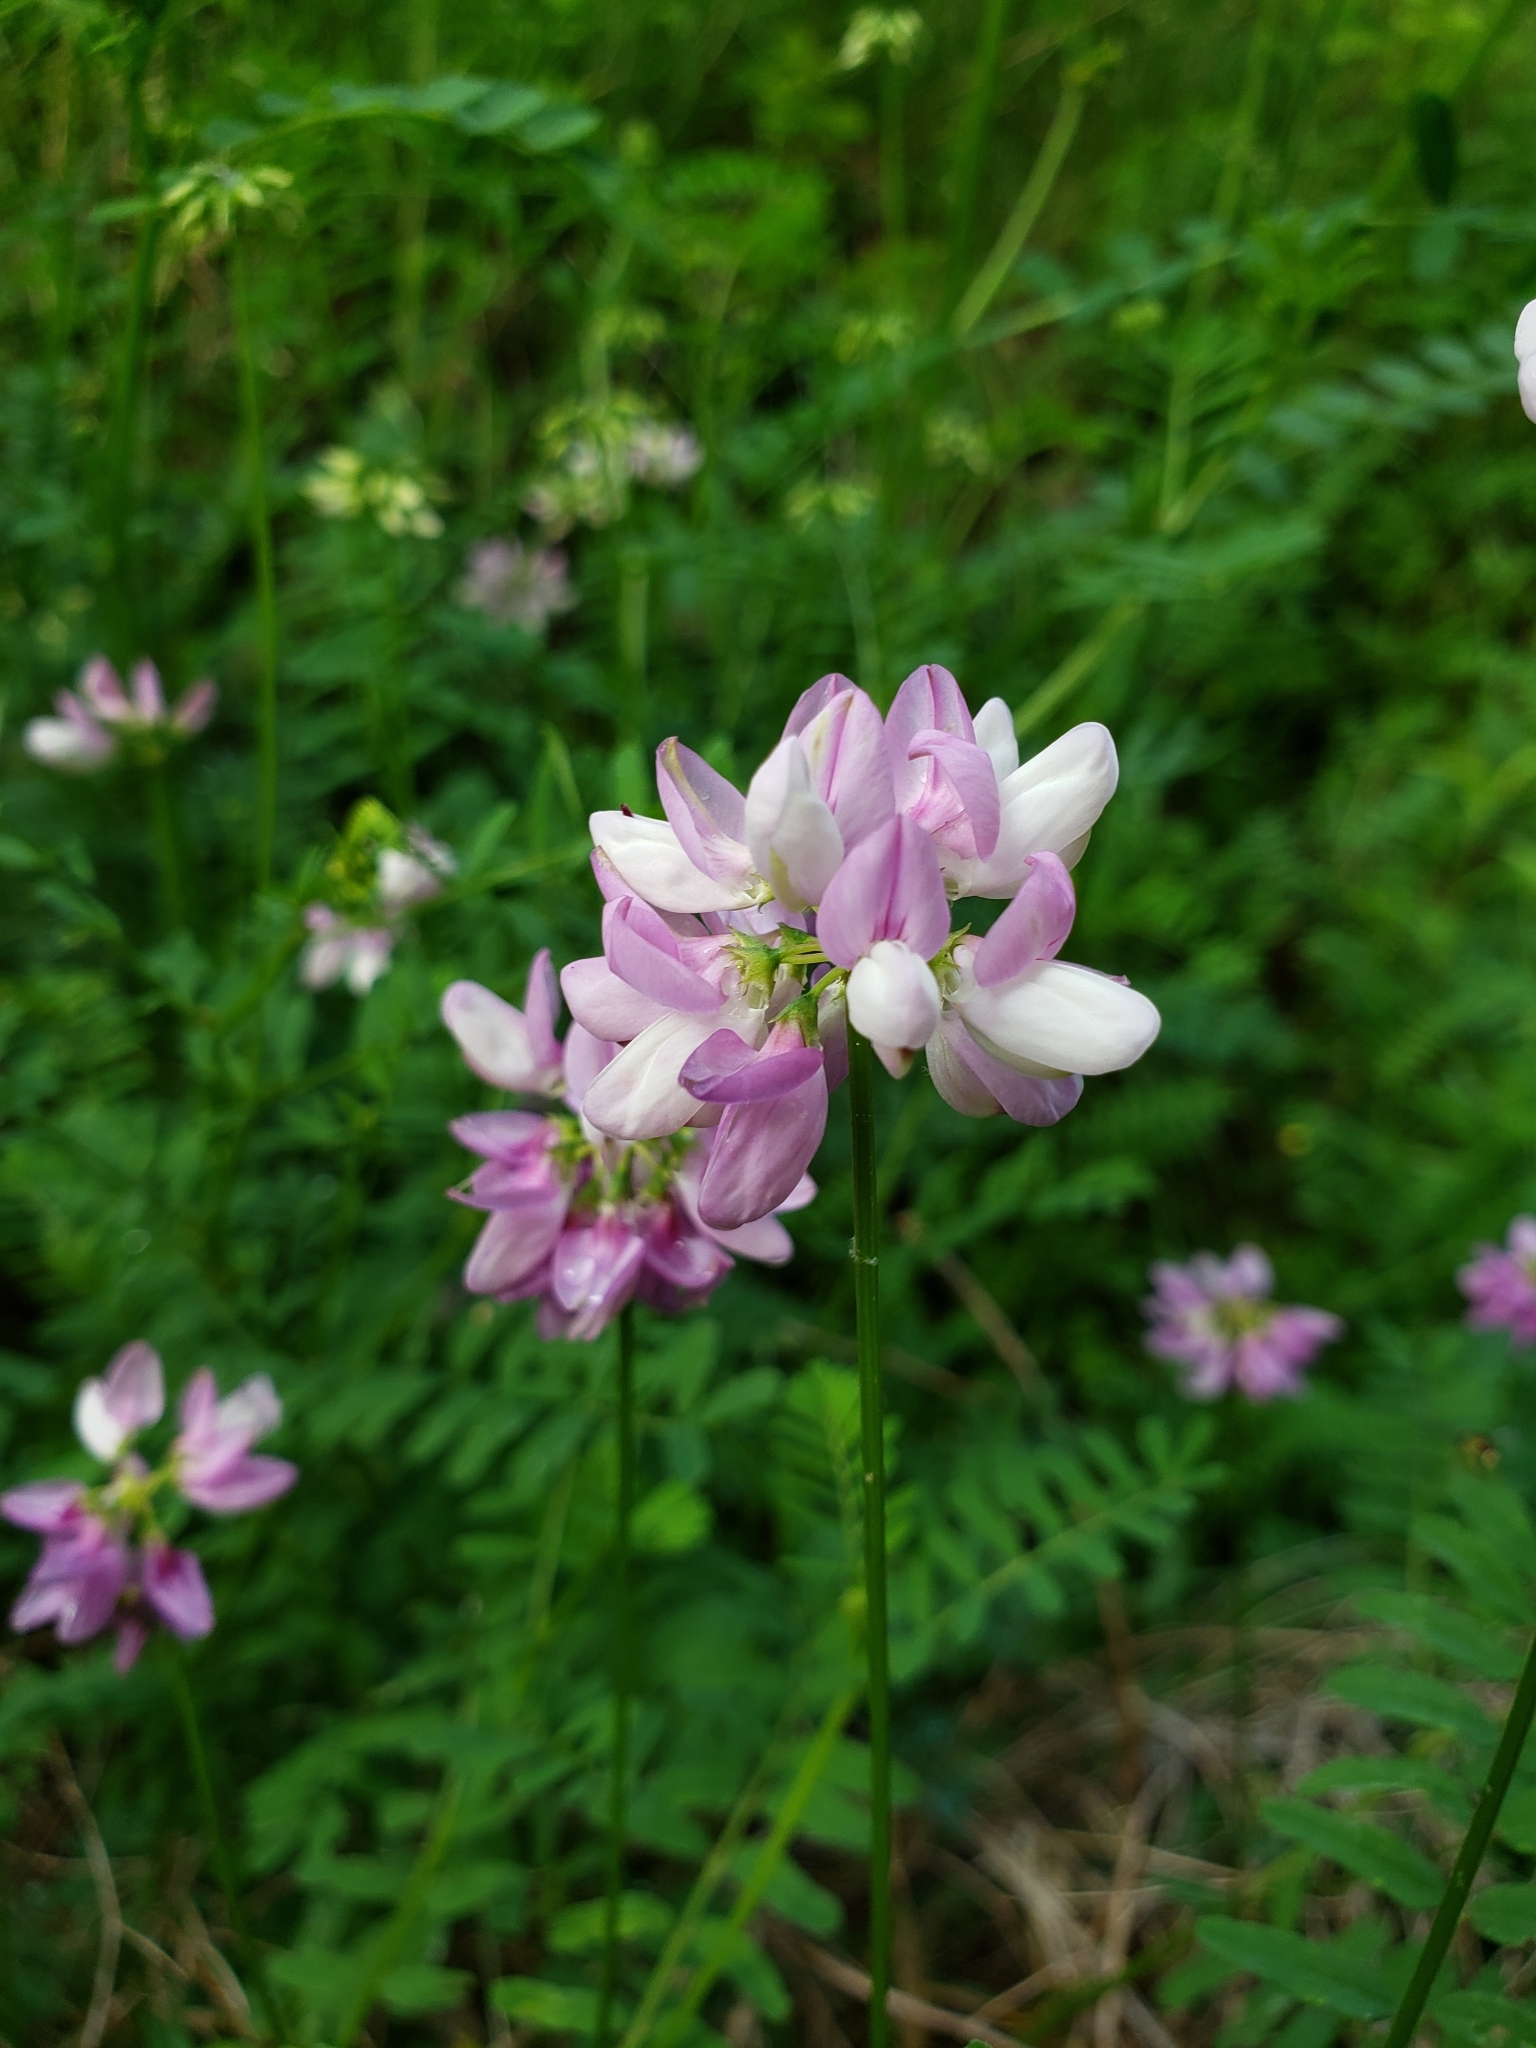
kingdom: Plantae
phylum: Tracheophyta
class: Magnoliopsida
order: Fabales
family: Fabaceae
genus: Coronilla
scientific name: Coronilla varia
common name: Crownvetch
